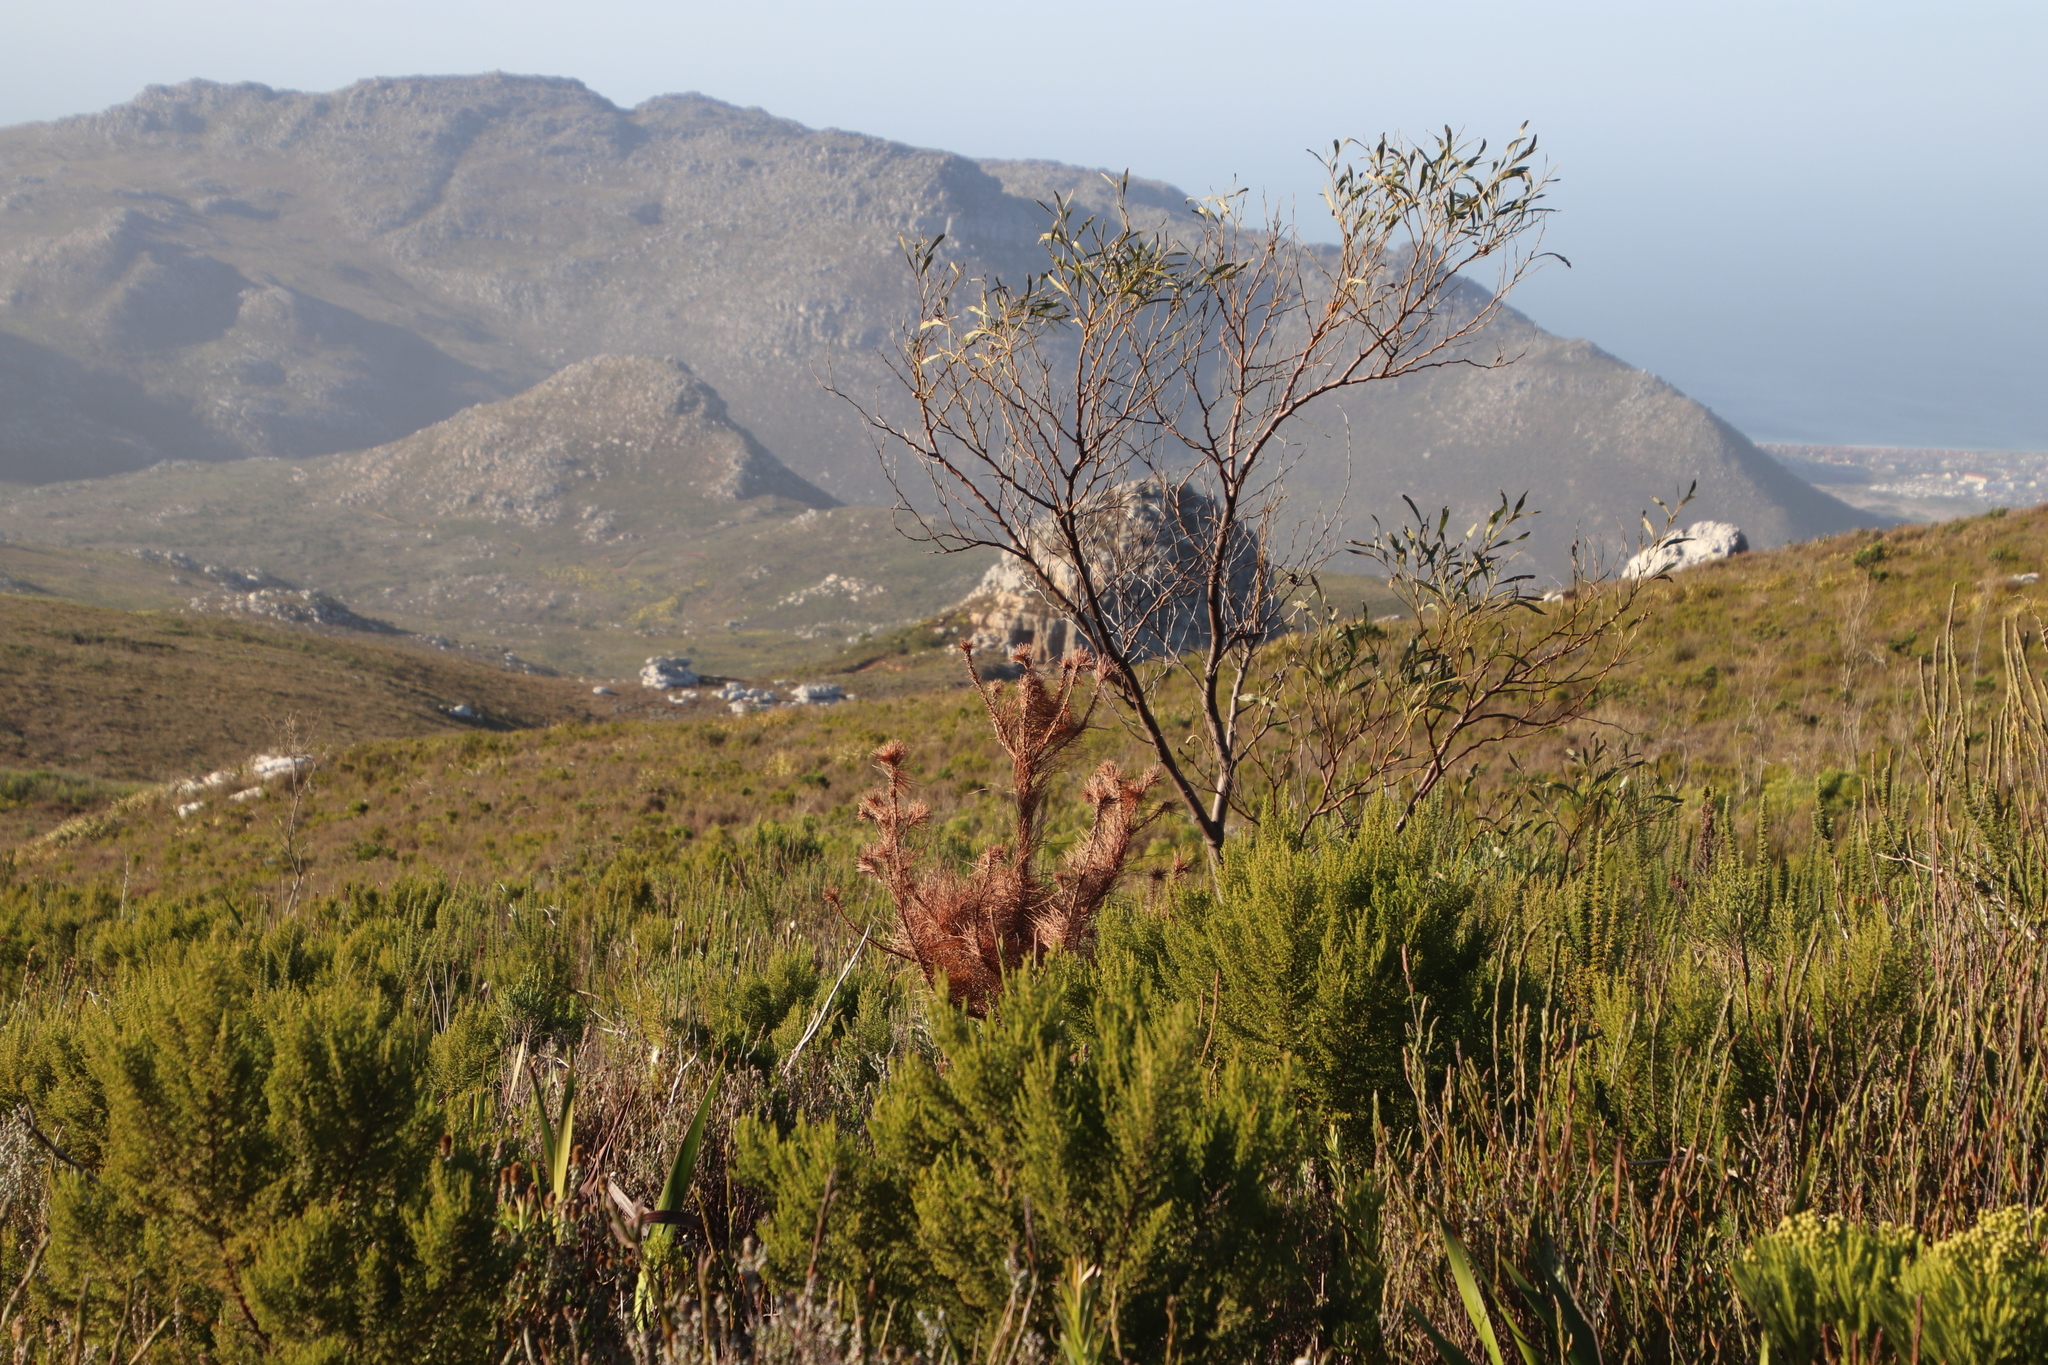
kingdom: Plantae
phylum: Tracheophyta
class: Magnoliopsida
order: Fabales
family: Fabaceae
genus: Acacia
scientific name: Acacia saligna
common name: Orange wattle
